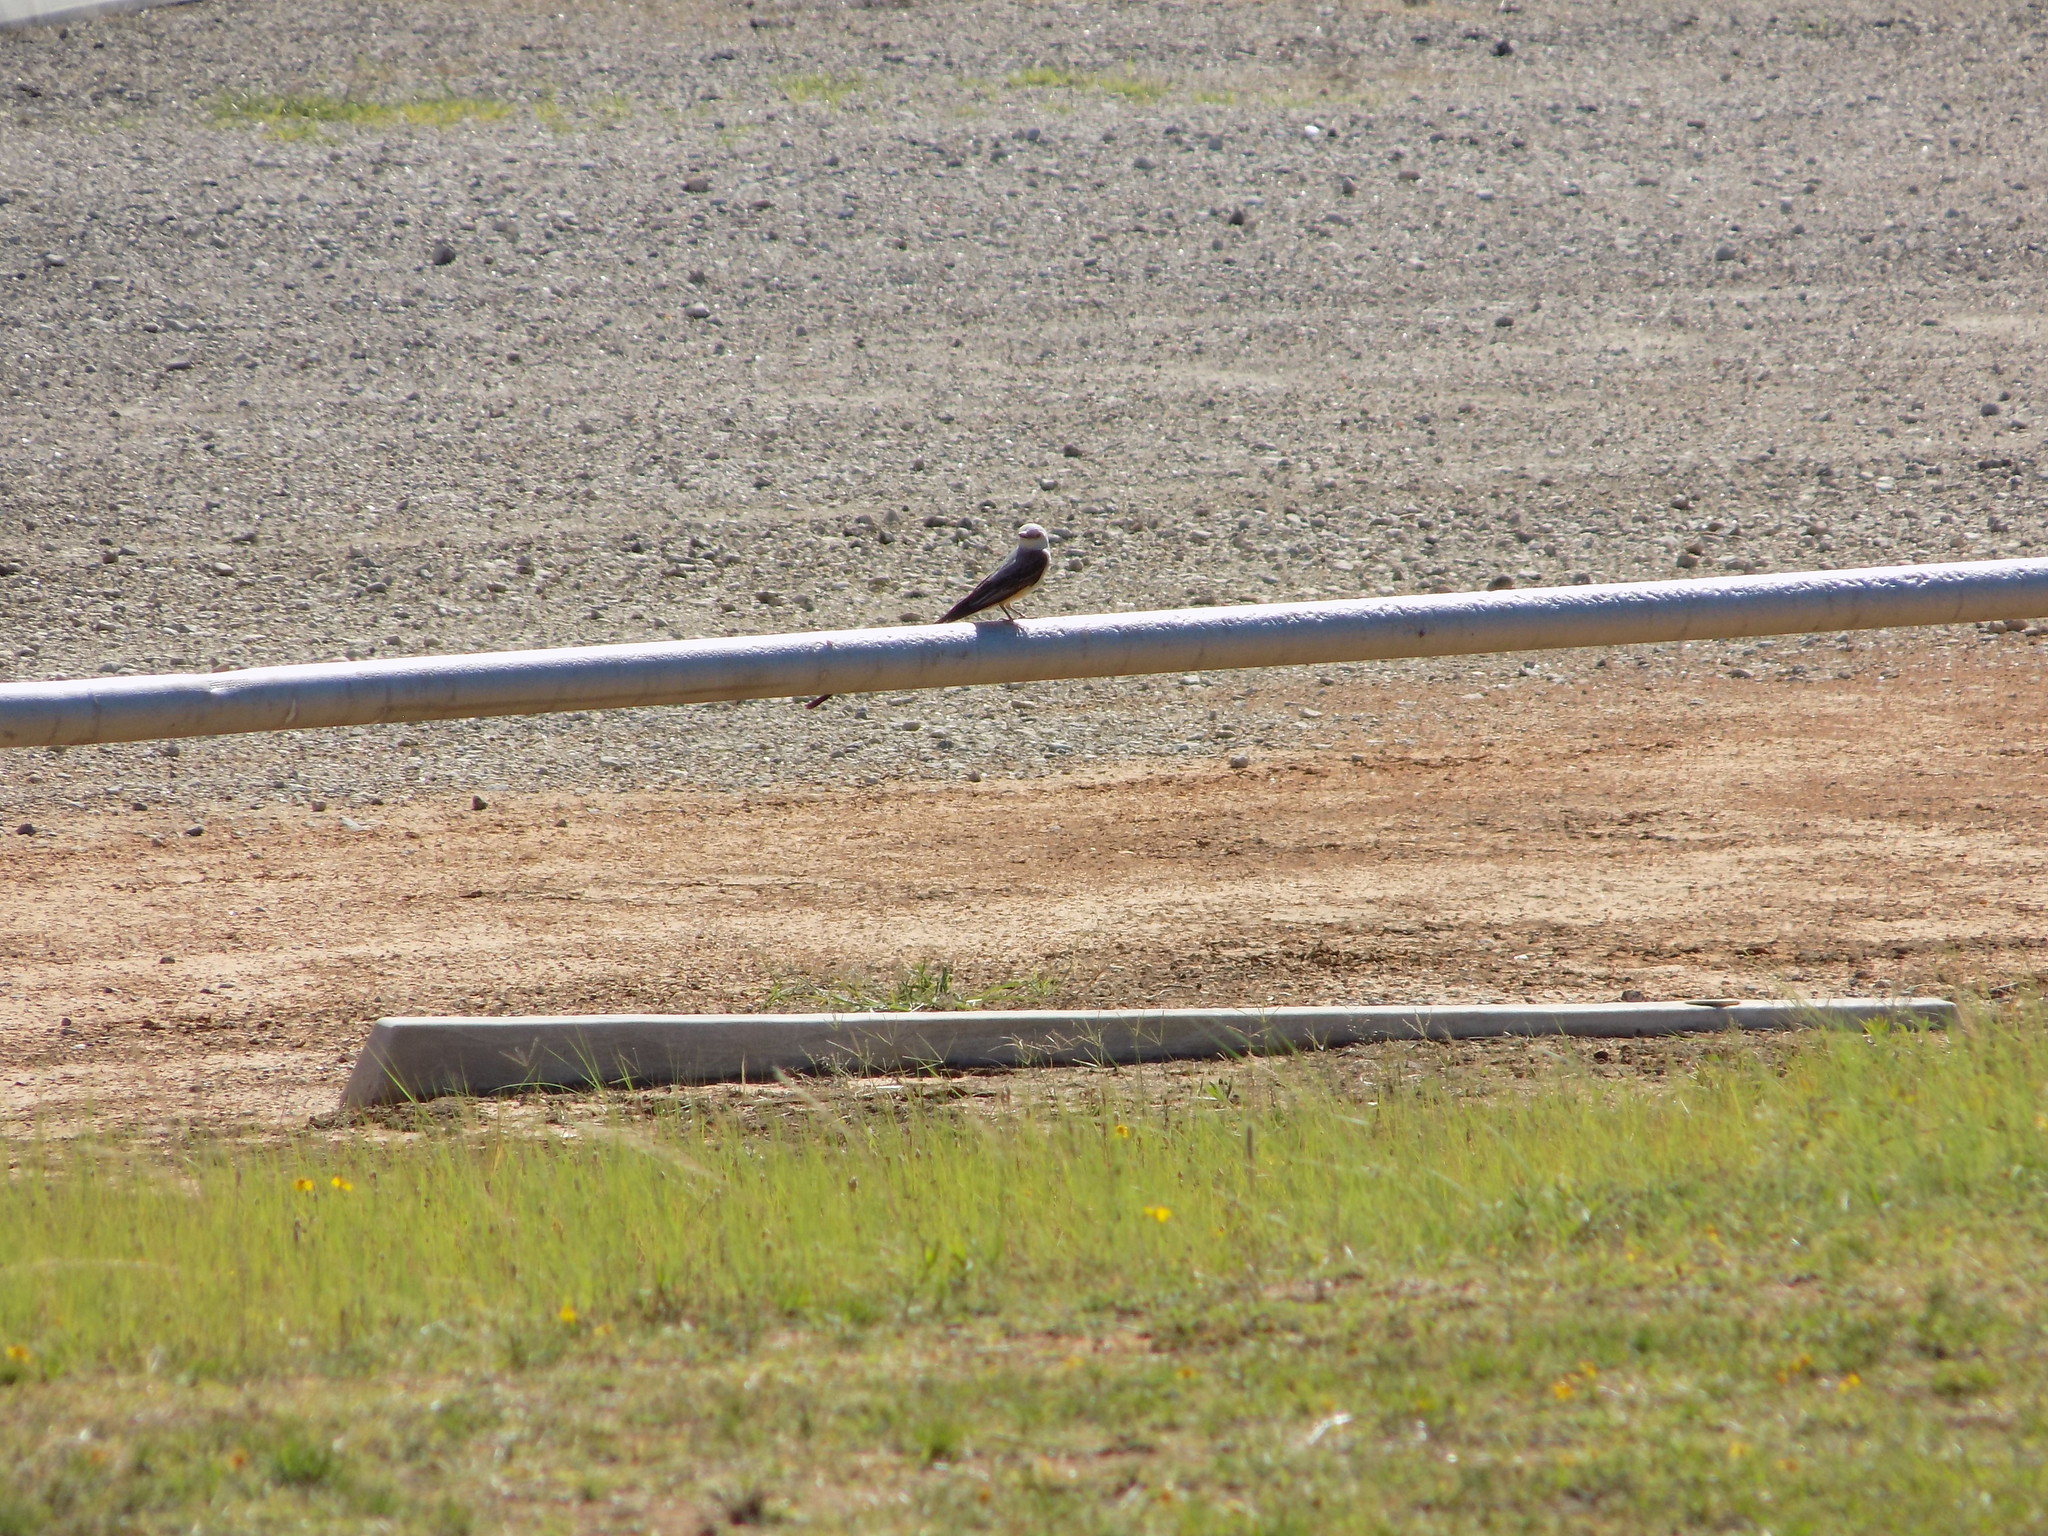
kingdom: Animalia
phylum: Chordata
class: Aves
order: Passeriformes
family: Tyrannidae
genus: Tyrannus
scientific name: Tyrannus forficatus
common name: Scissor-tailed flycatcher
